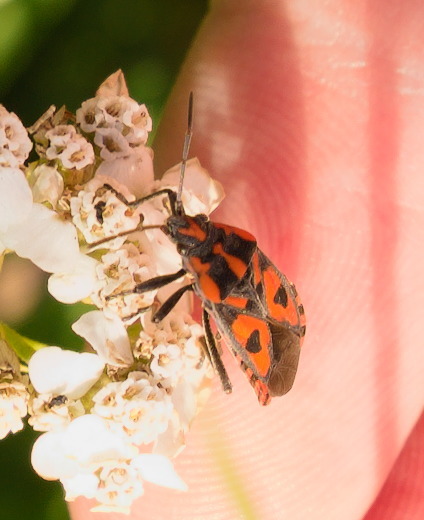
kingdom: Animalia
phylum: Arthropoda
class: Insecta
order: Hemiptera
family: Lygaeidae
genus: Spilostethus
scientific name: Spilostethus saxatilis
